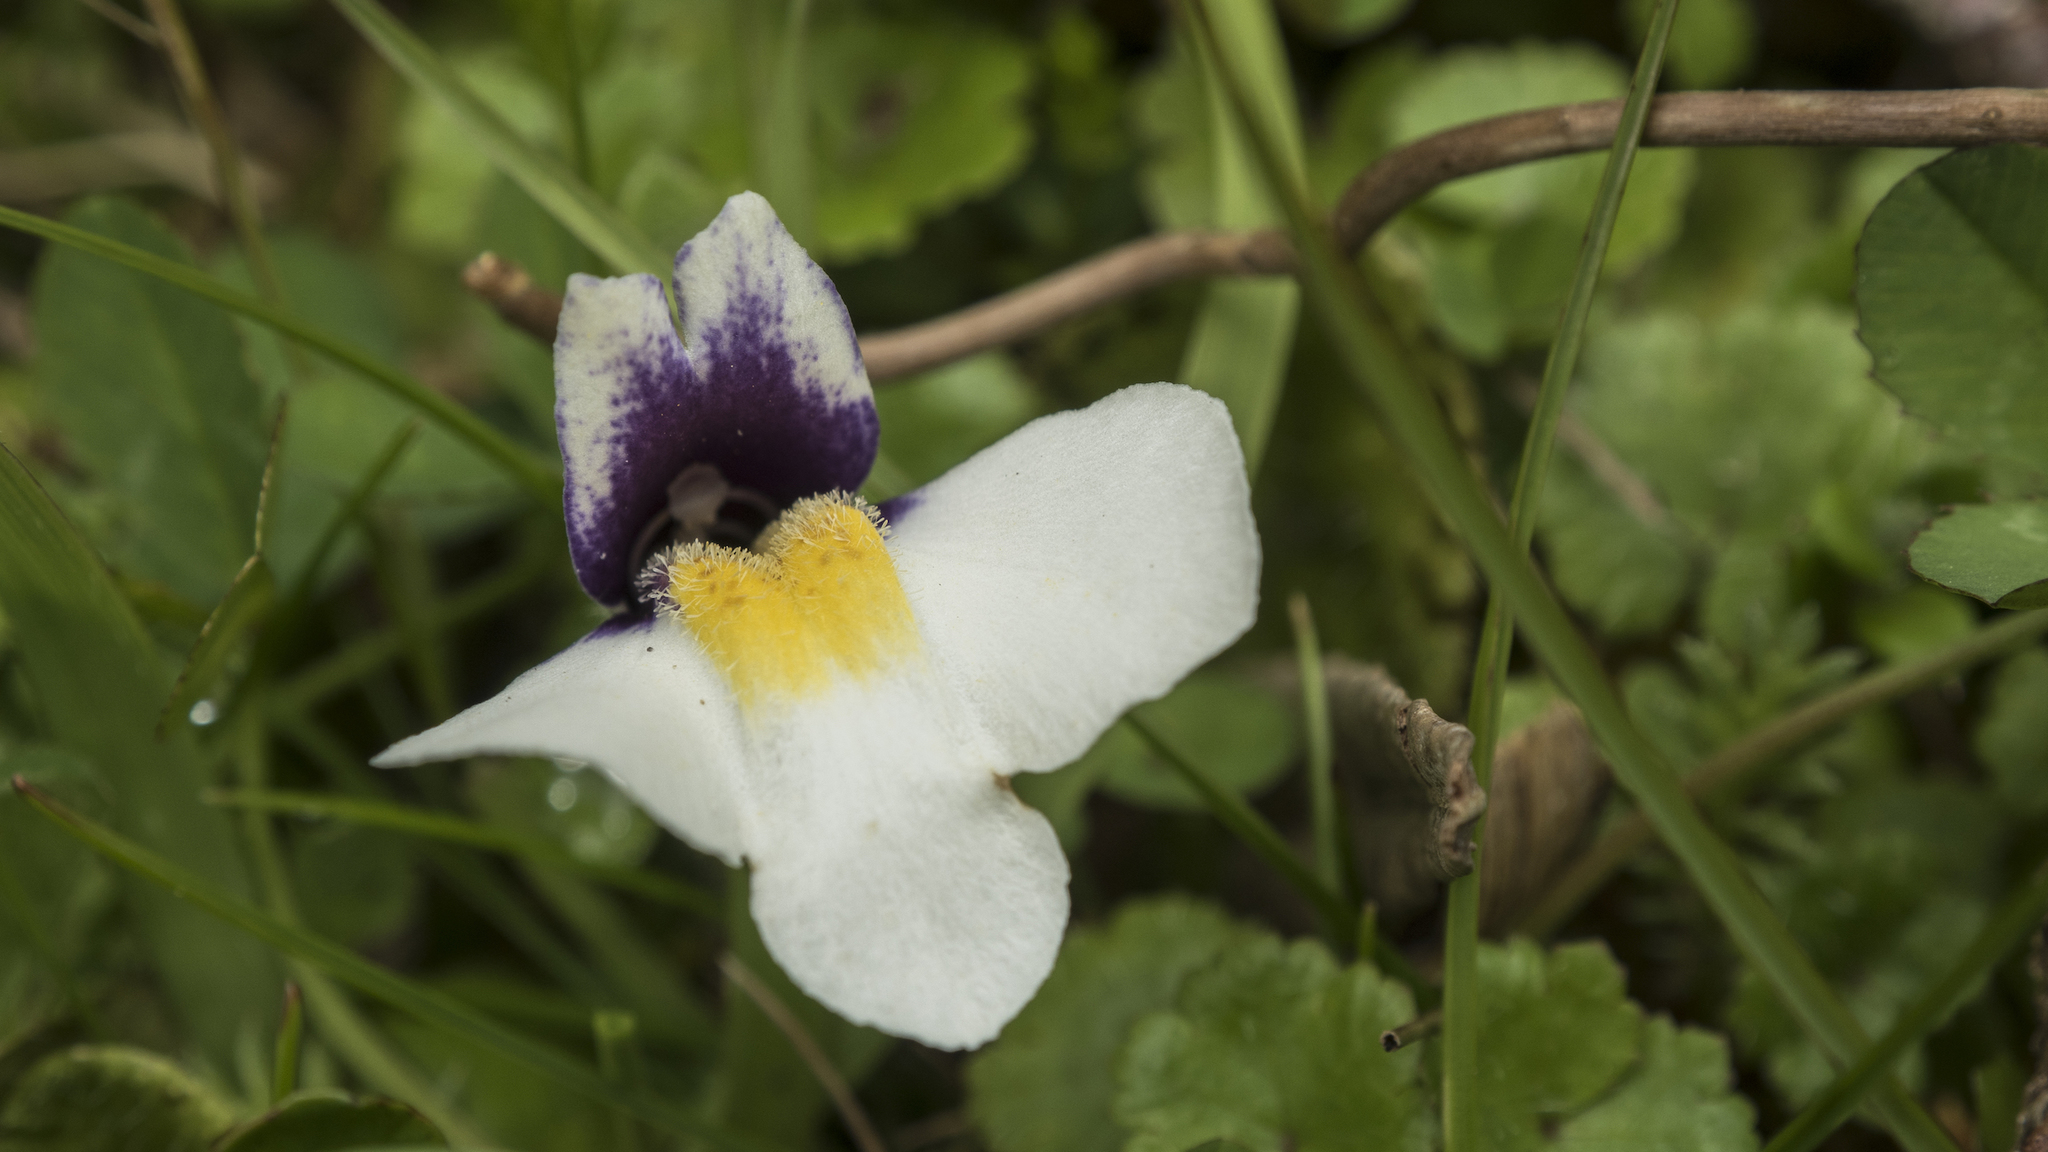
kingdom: Plantae
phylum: Tracheophyta
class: Magnoliopsida
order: Lamiales
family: Mazaceae
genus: Mazus
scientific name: Mazus radicans
